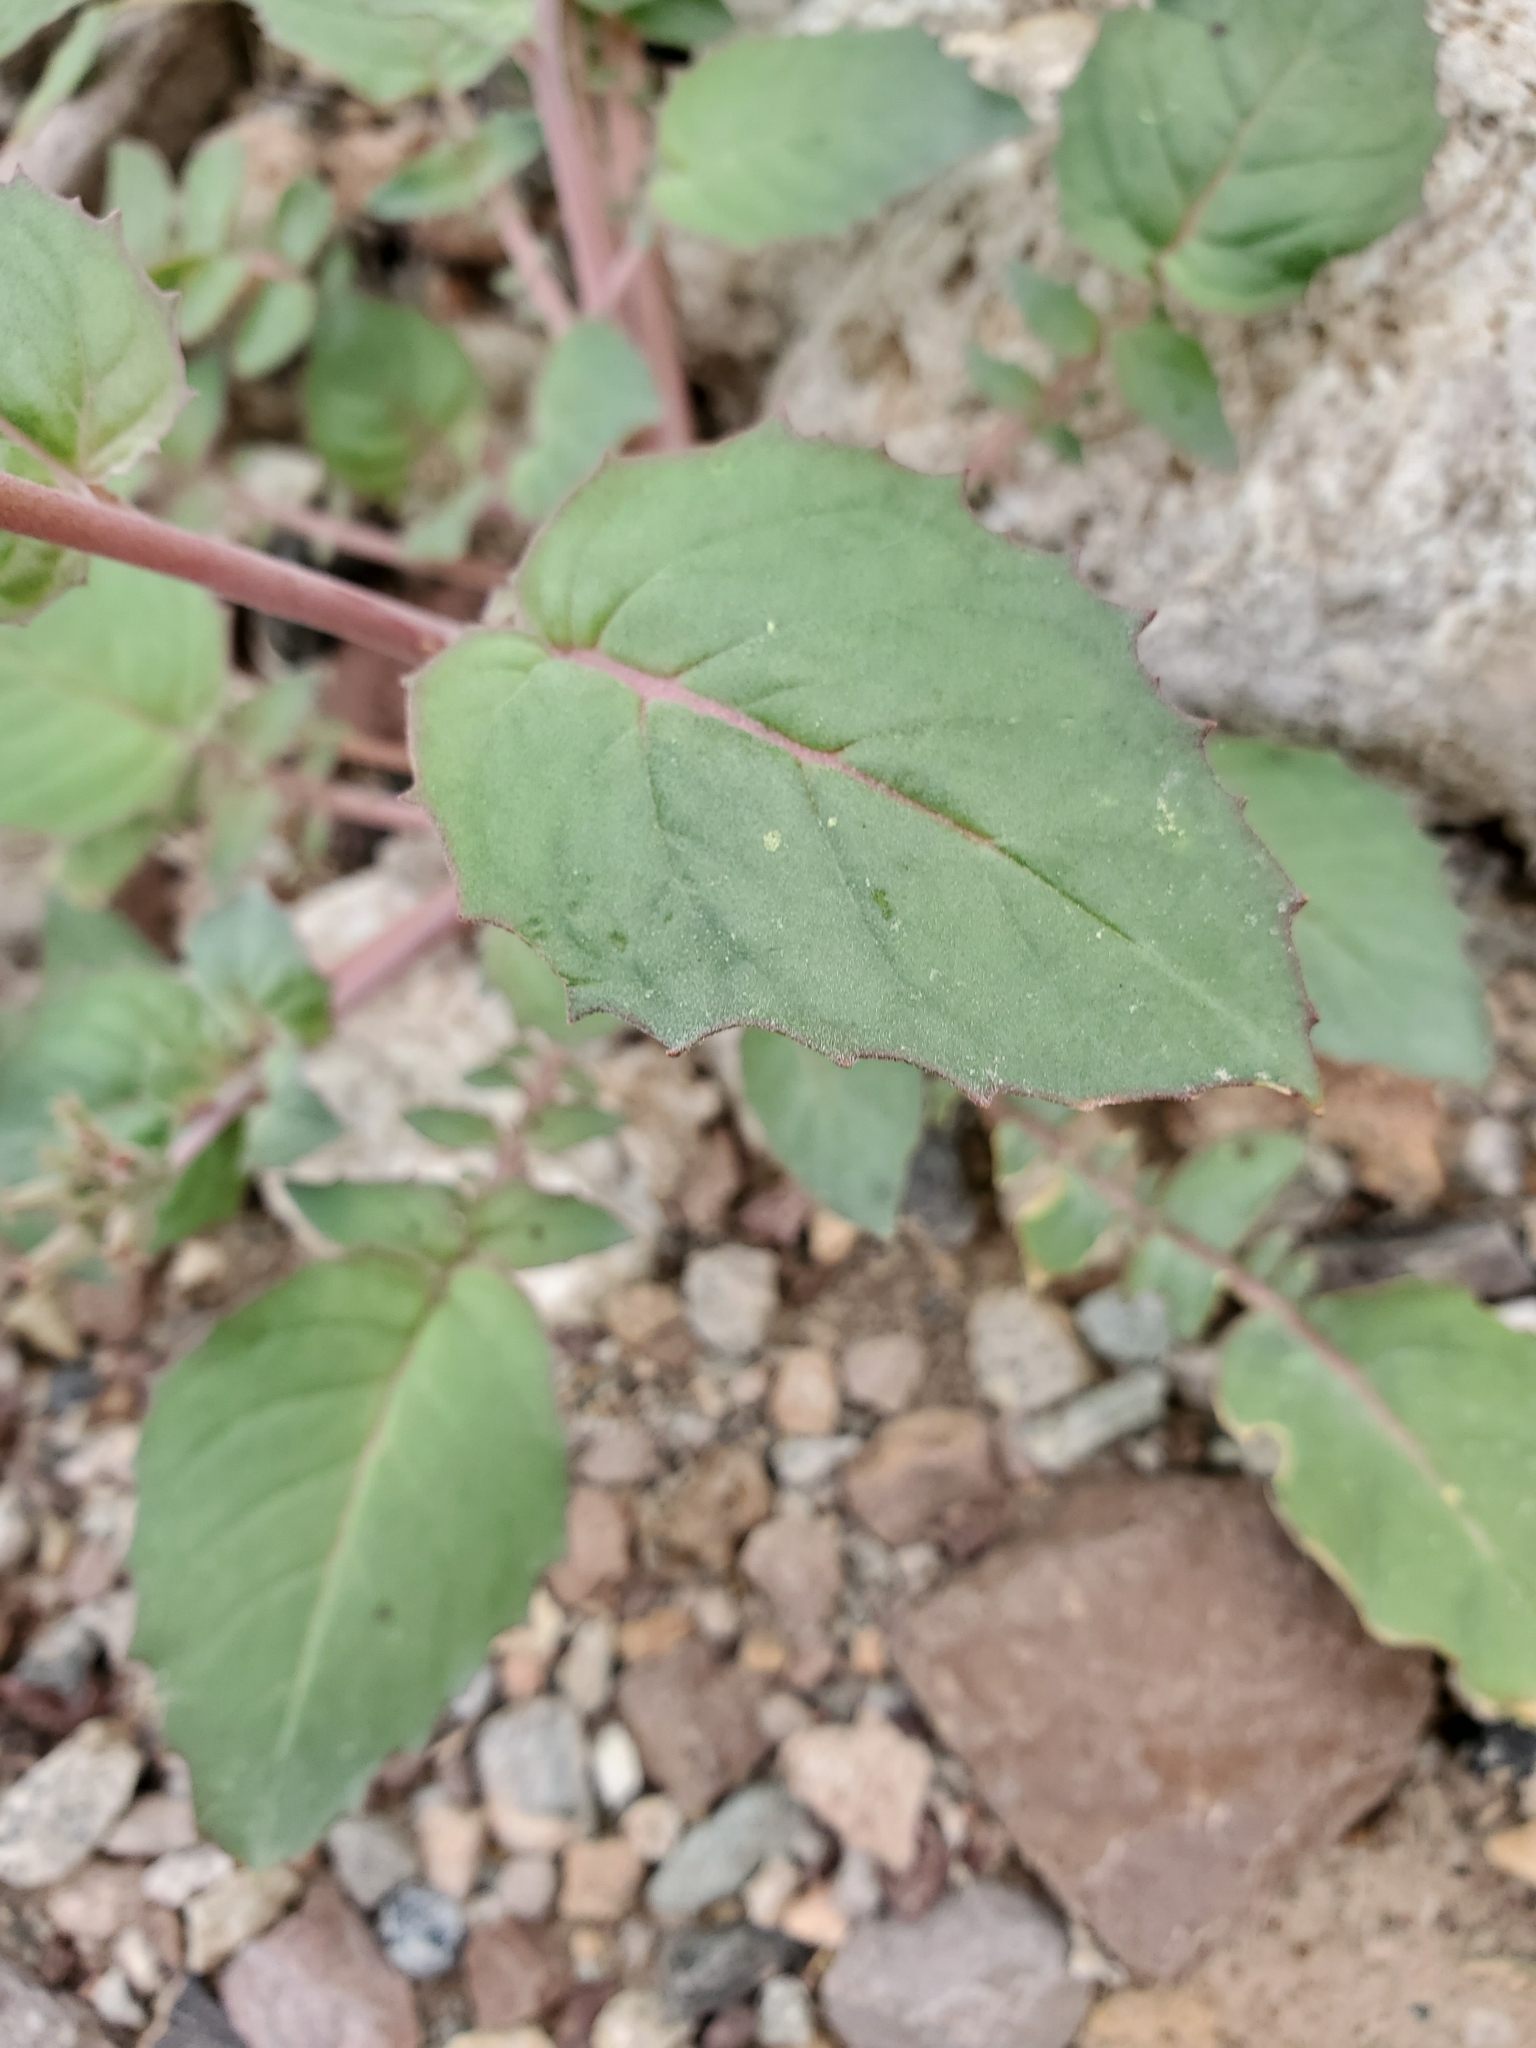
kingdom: Plantae
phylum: Tracheophyta
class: Magnoliopsida
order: Myrtales
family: Onagraceae
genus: Chylismia
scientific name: Chylismia claviformis
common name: Browneyes
